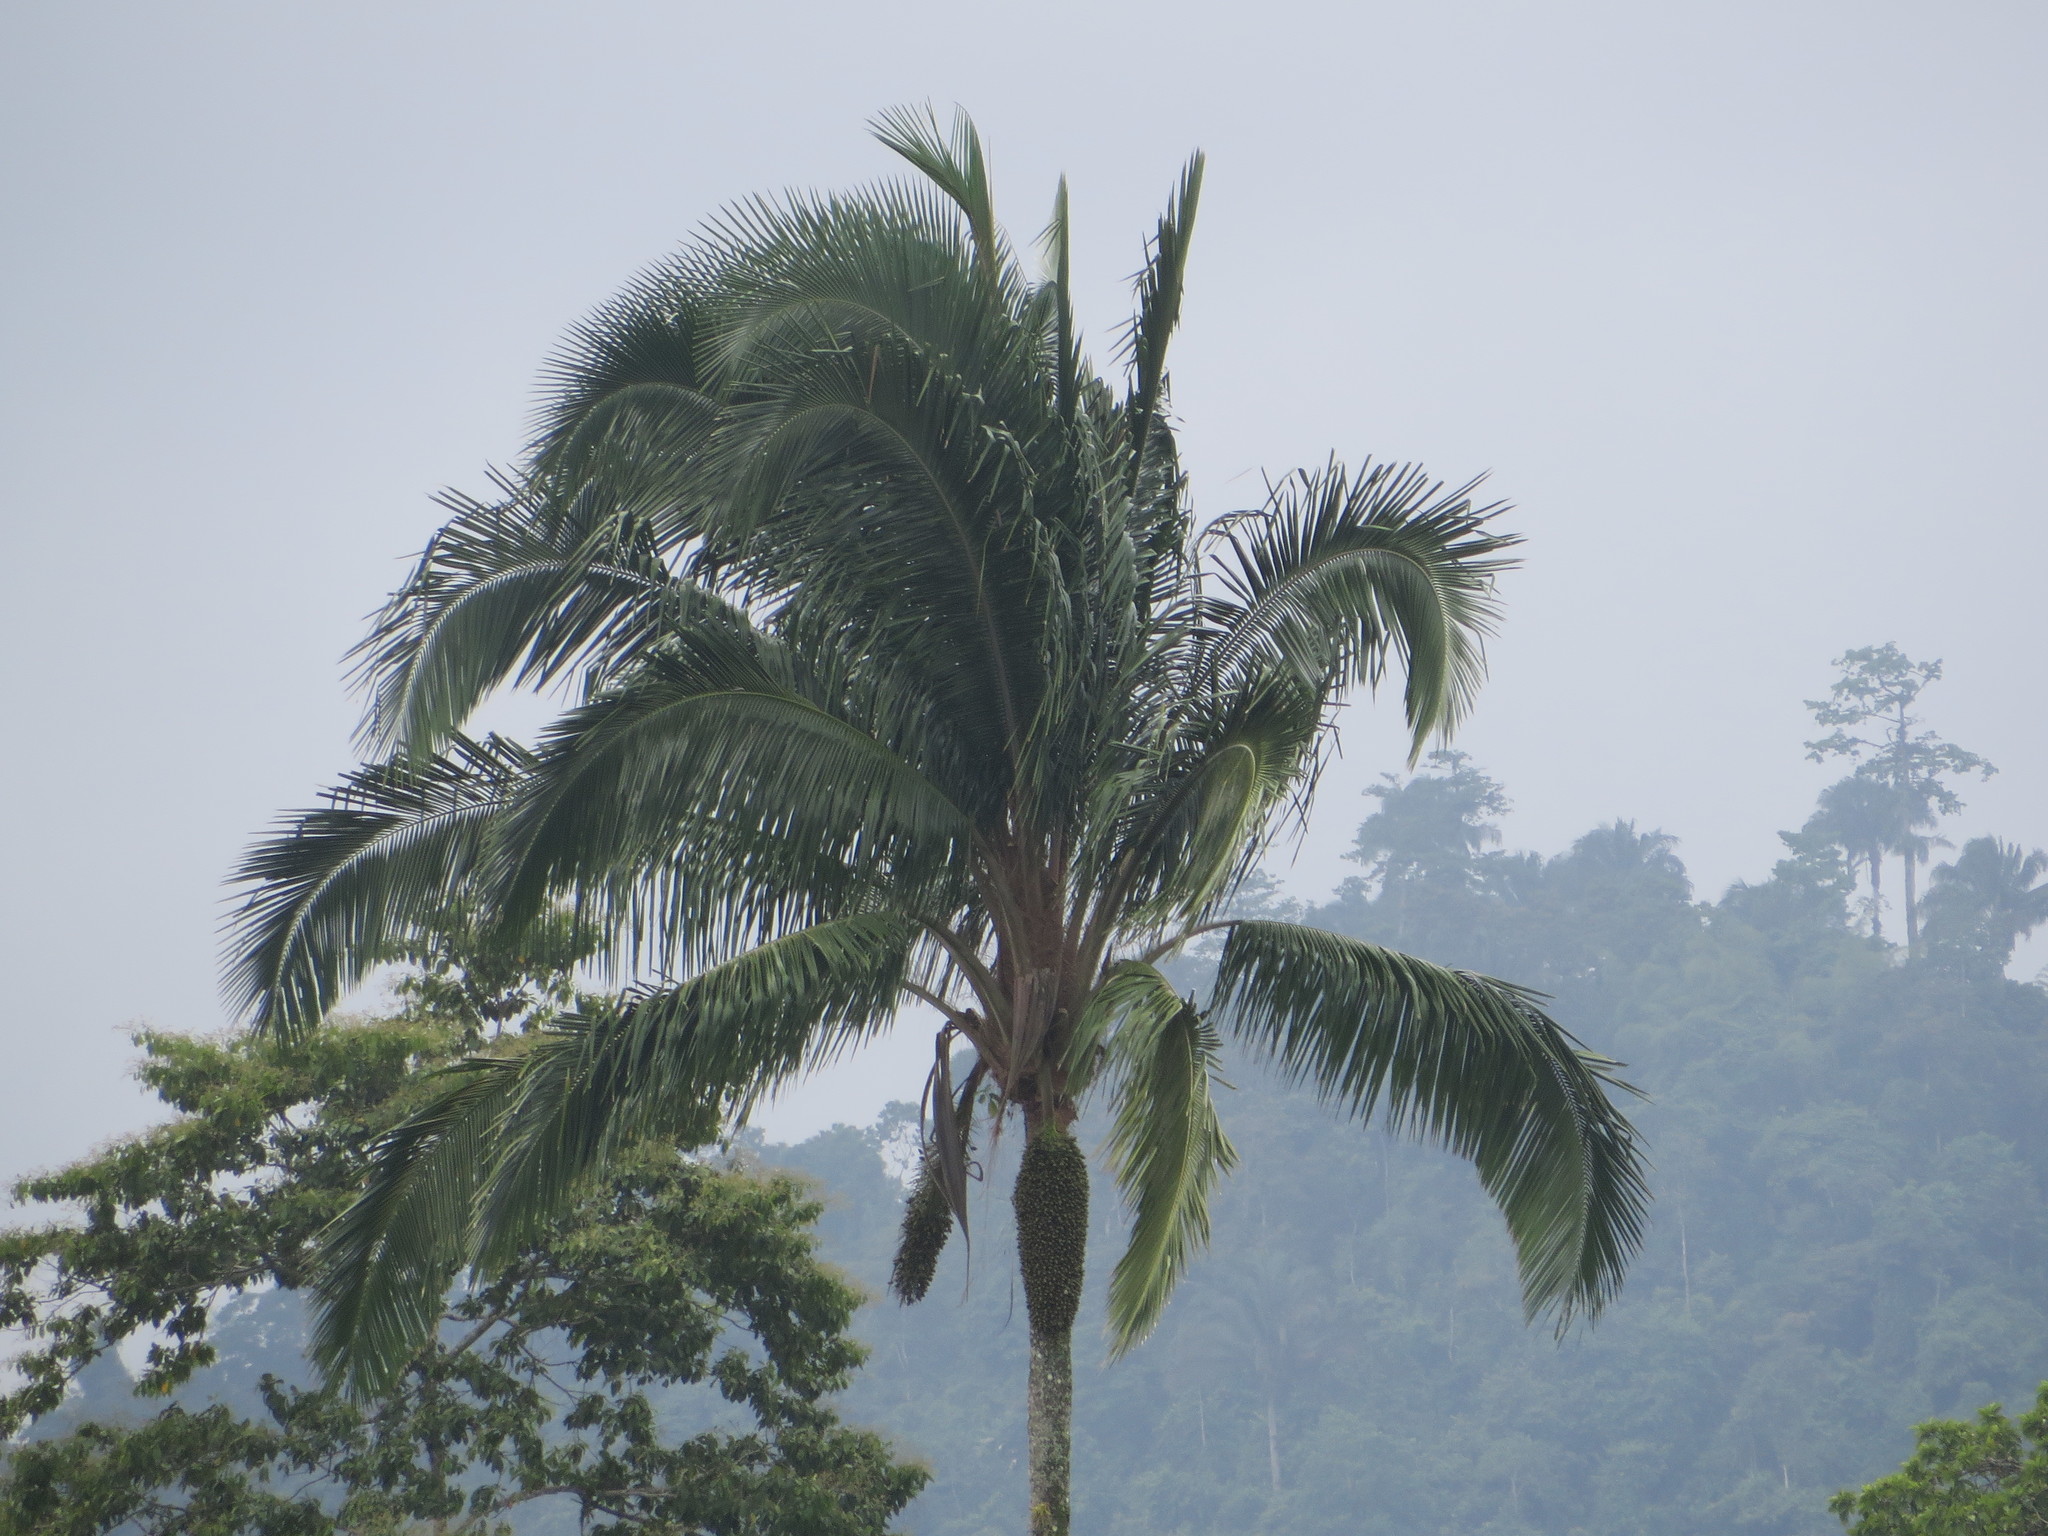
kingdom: Plantae
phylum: Tracheophyta
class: Liliopsida
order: Arecales
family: Arecaceae
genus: Attalea
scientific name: Attalea colenda
